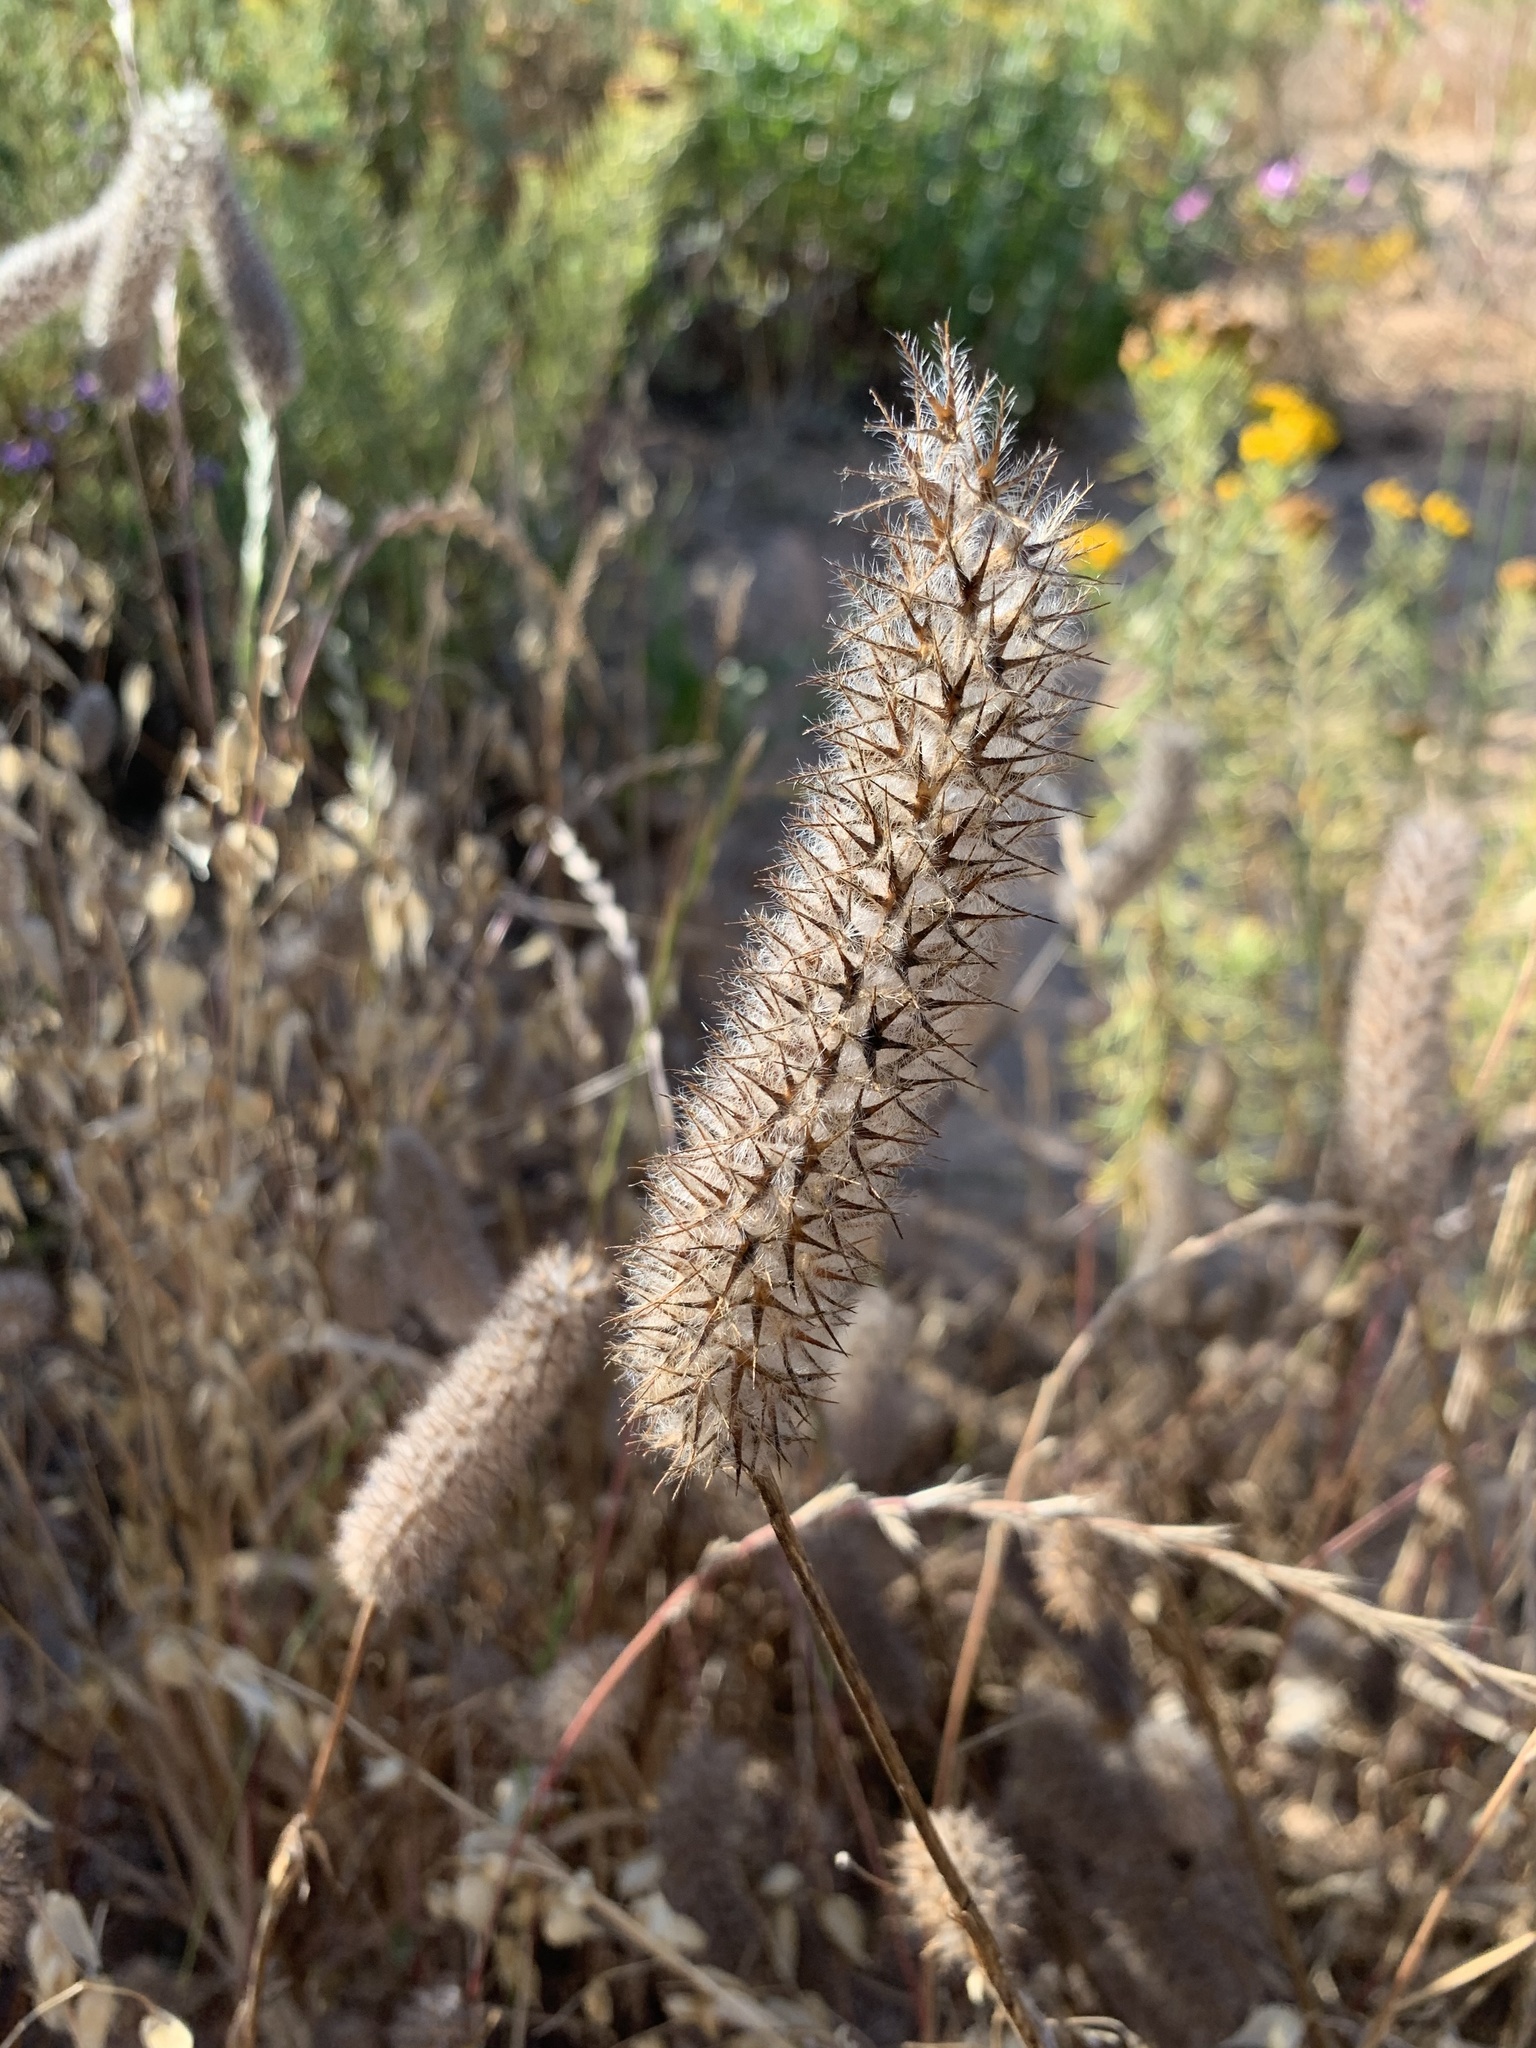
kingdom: Plantae
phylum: Tracheophyta
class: Magnoliopsida
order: Fabales
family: Fabaceae
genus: Trifolium
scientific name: Trifolium angustifolium
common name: Narrow clover
